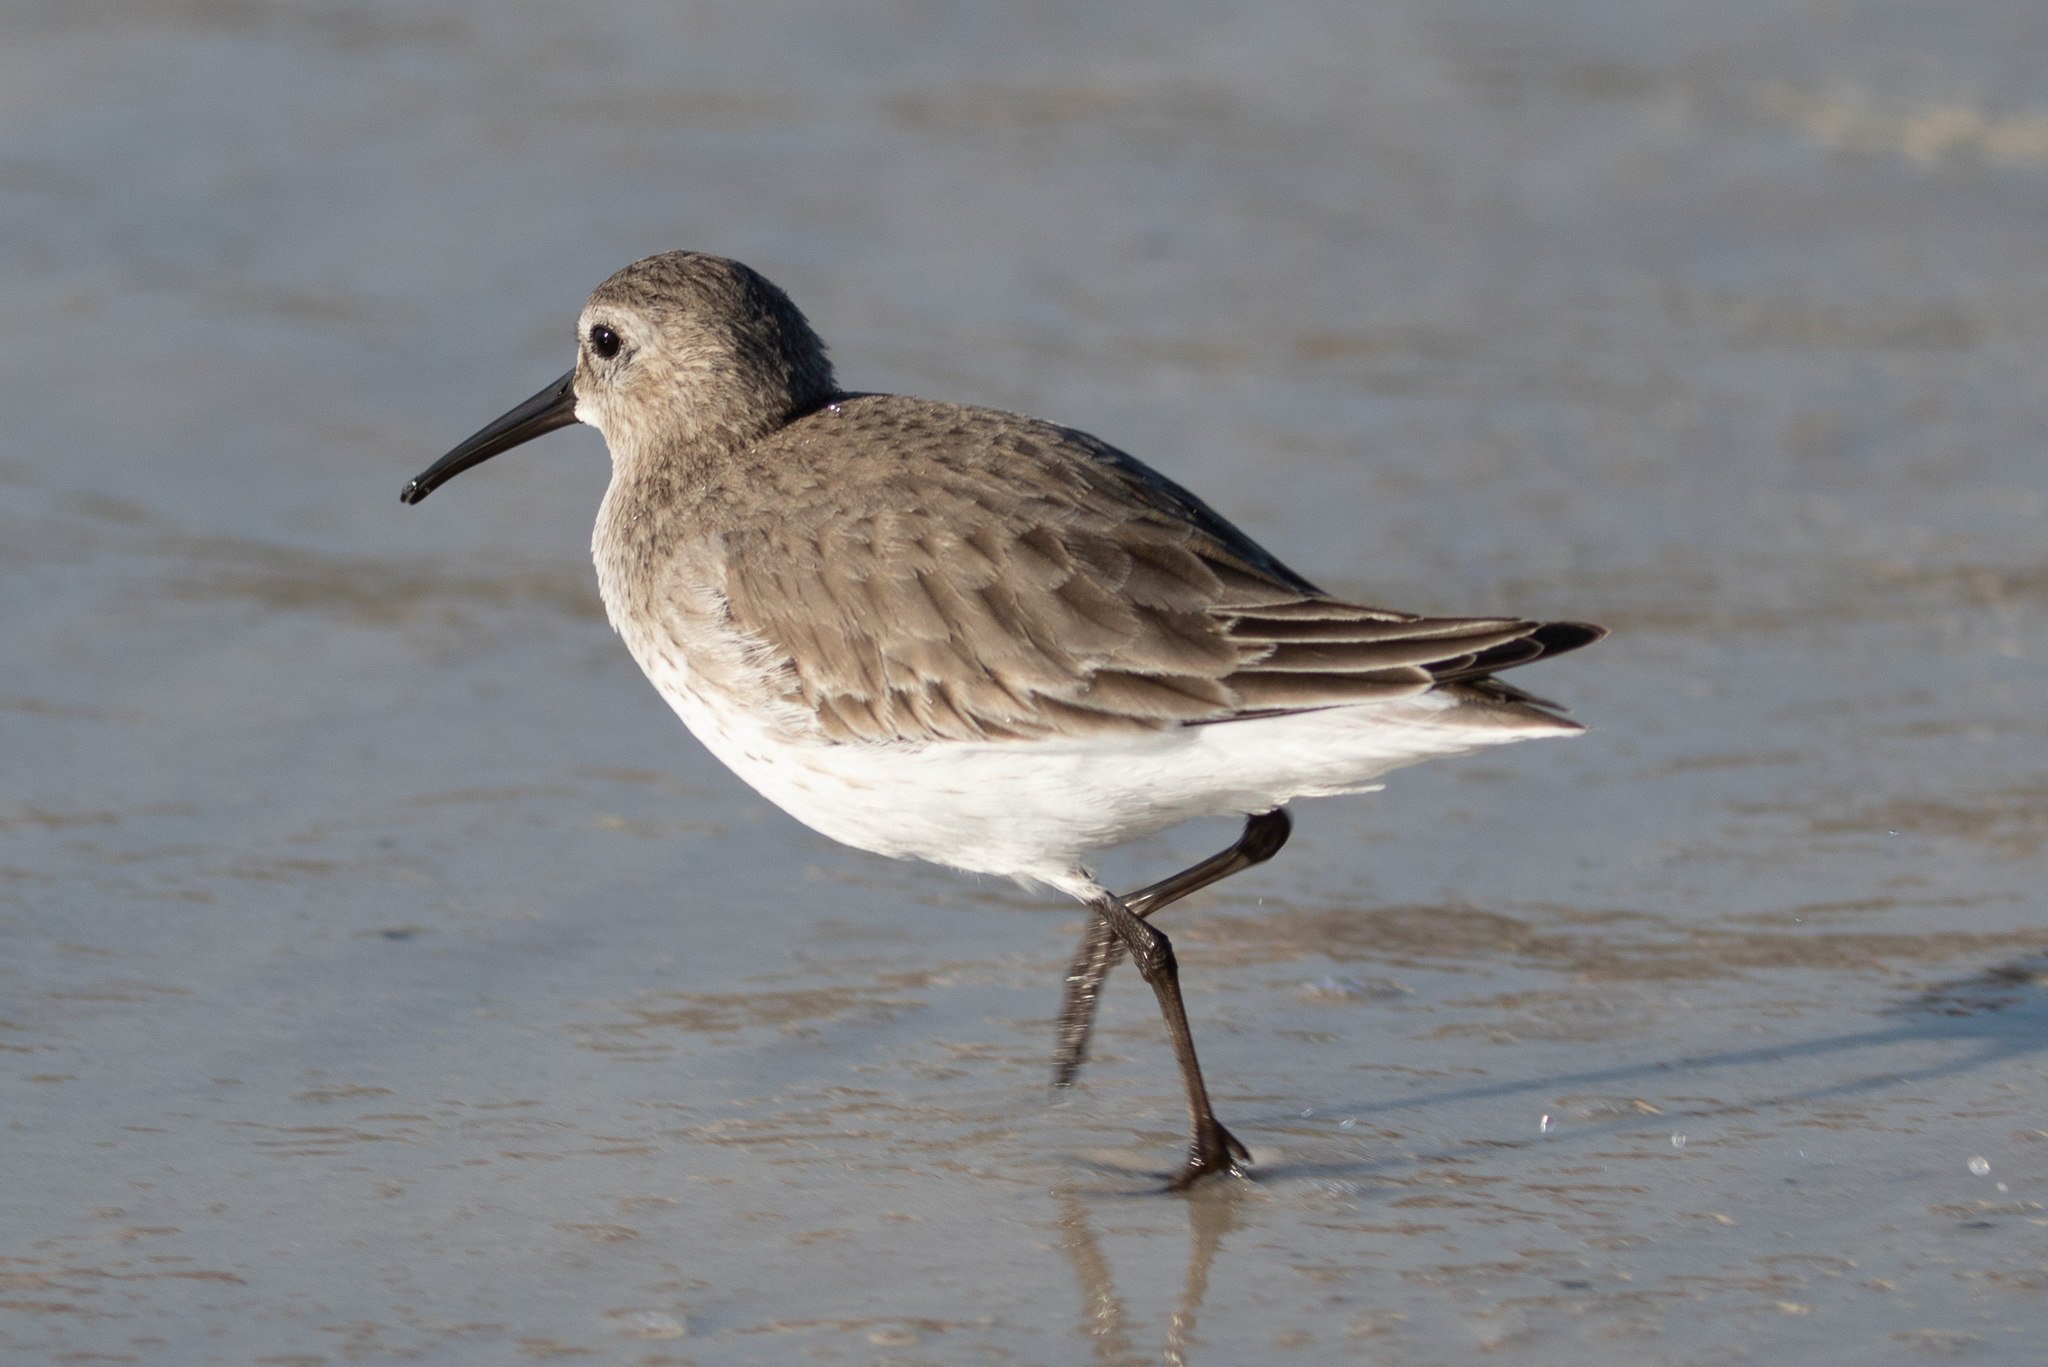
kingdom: Animalia
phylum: Chordata
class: Aves
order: Charadriiformes
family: Scolopacidae
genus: Calidris
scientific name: Calidris alpina
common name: Dunlin
